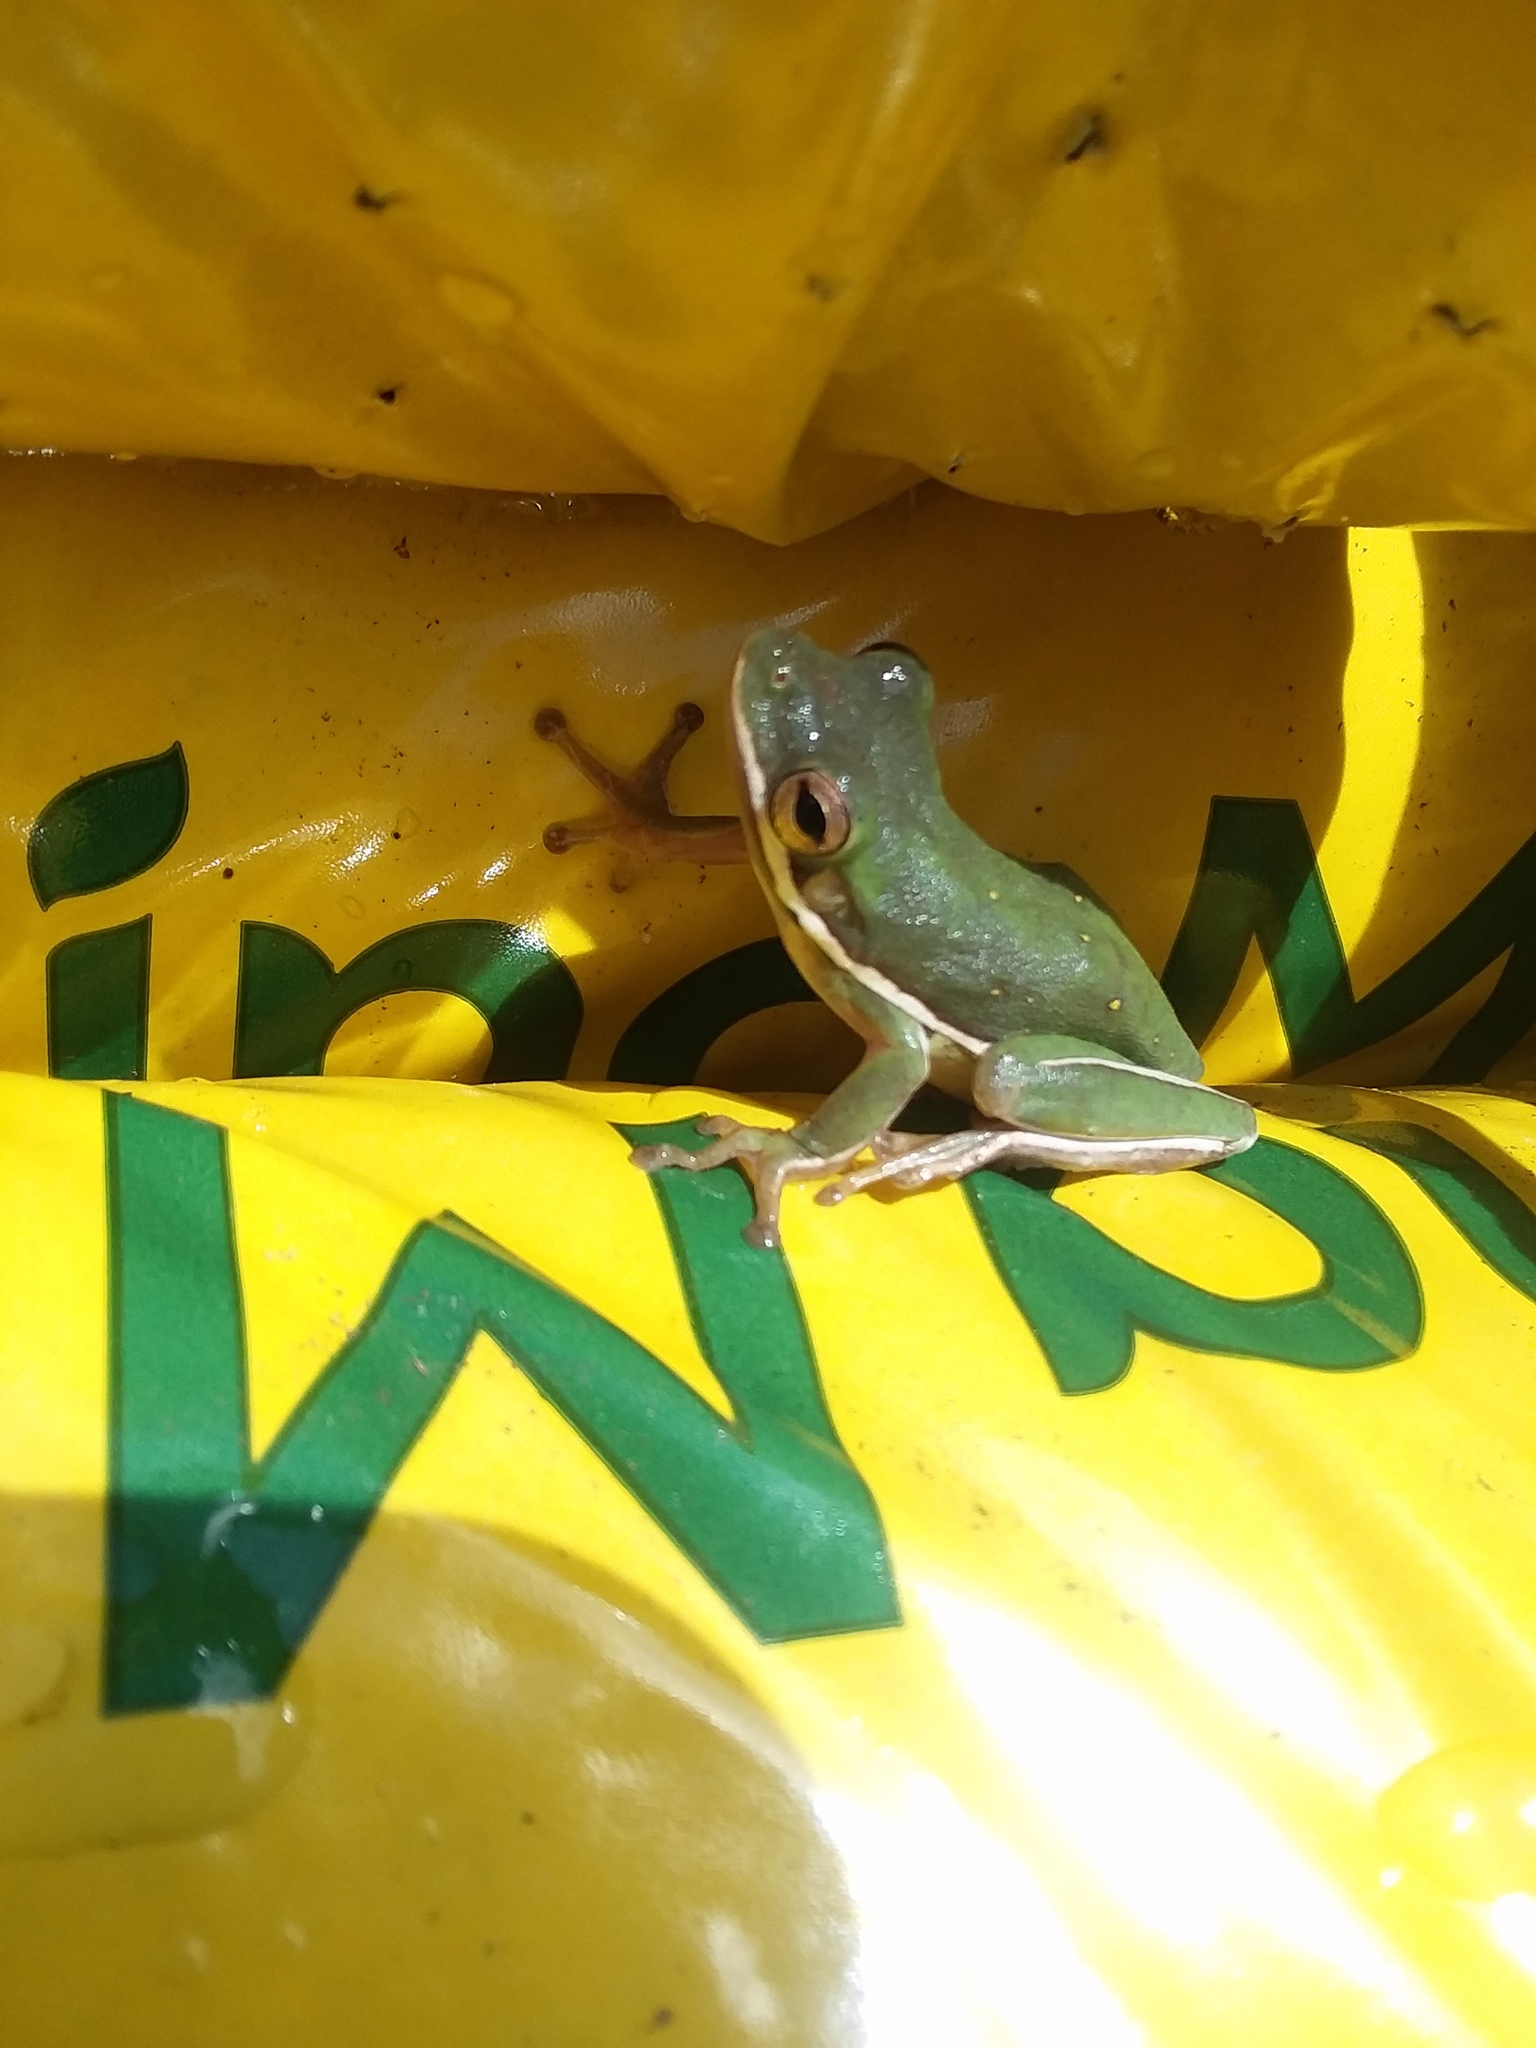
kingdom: Animalia
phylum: Chordata
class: Amphibia
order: Anura
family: Hylidae
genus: Dryophytes
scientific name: Dryophytes cinereus
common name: Green treefrog
